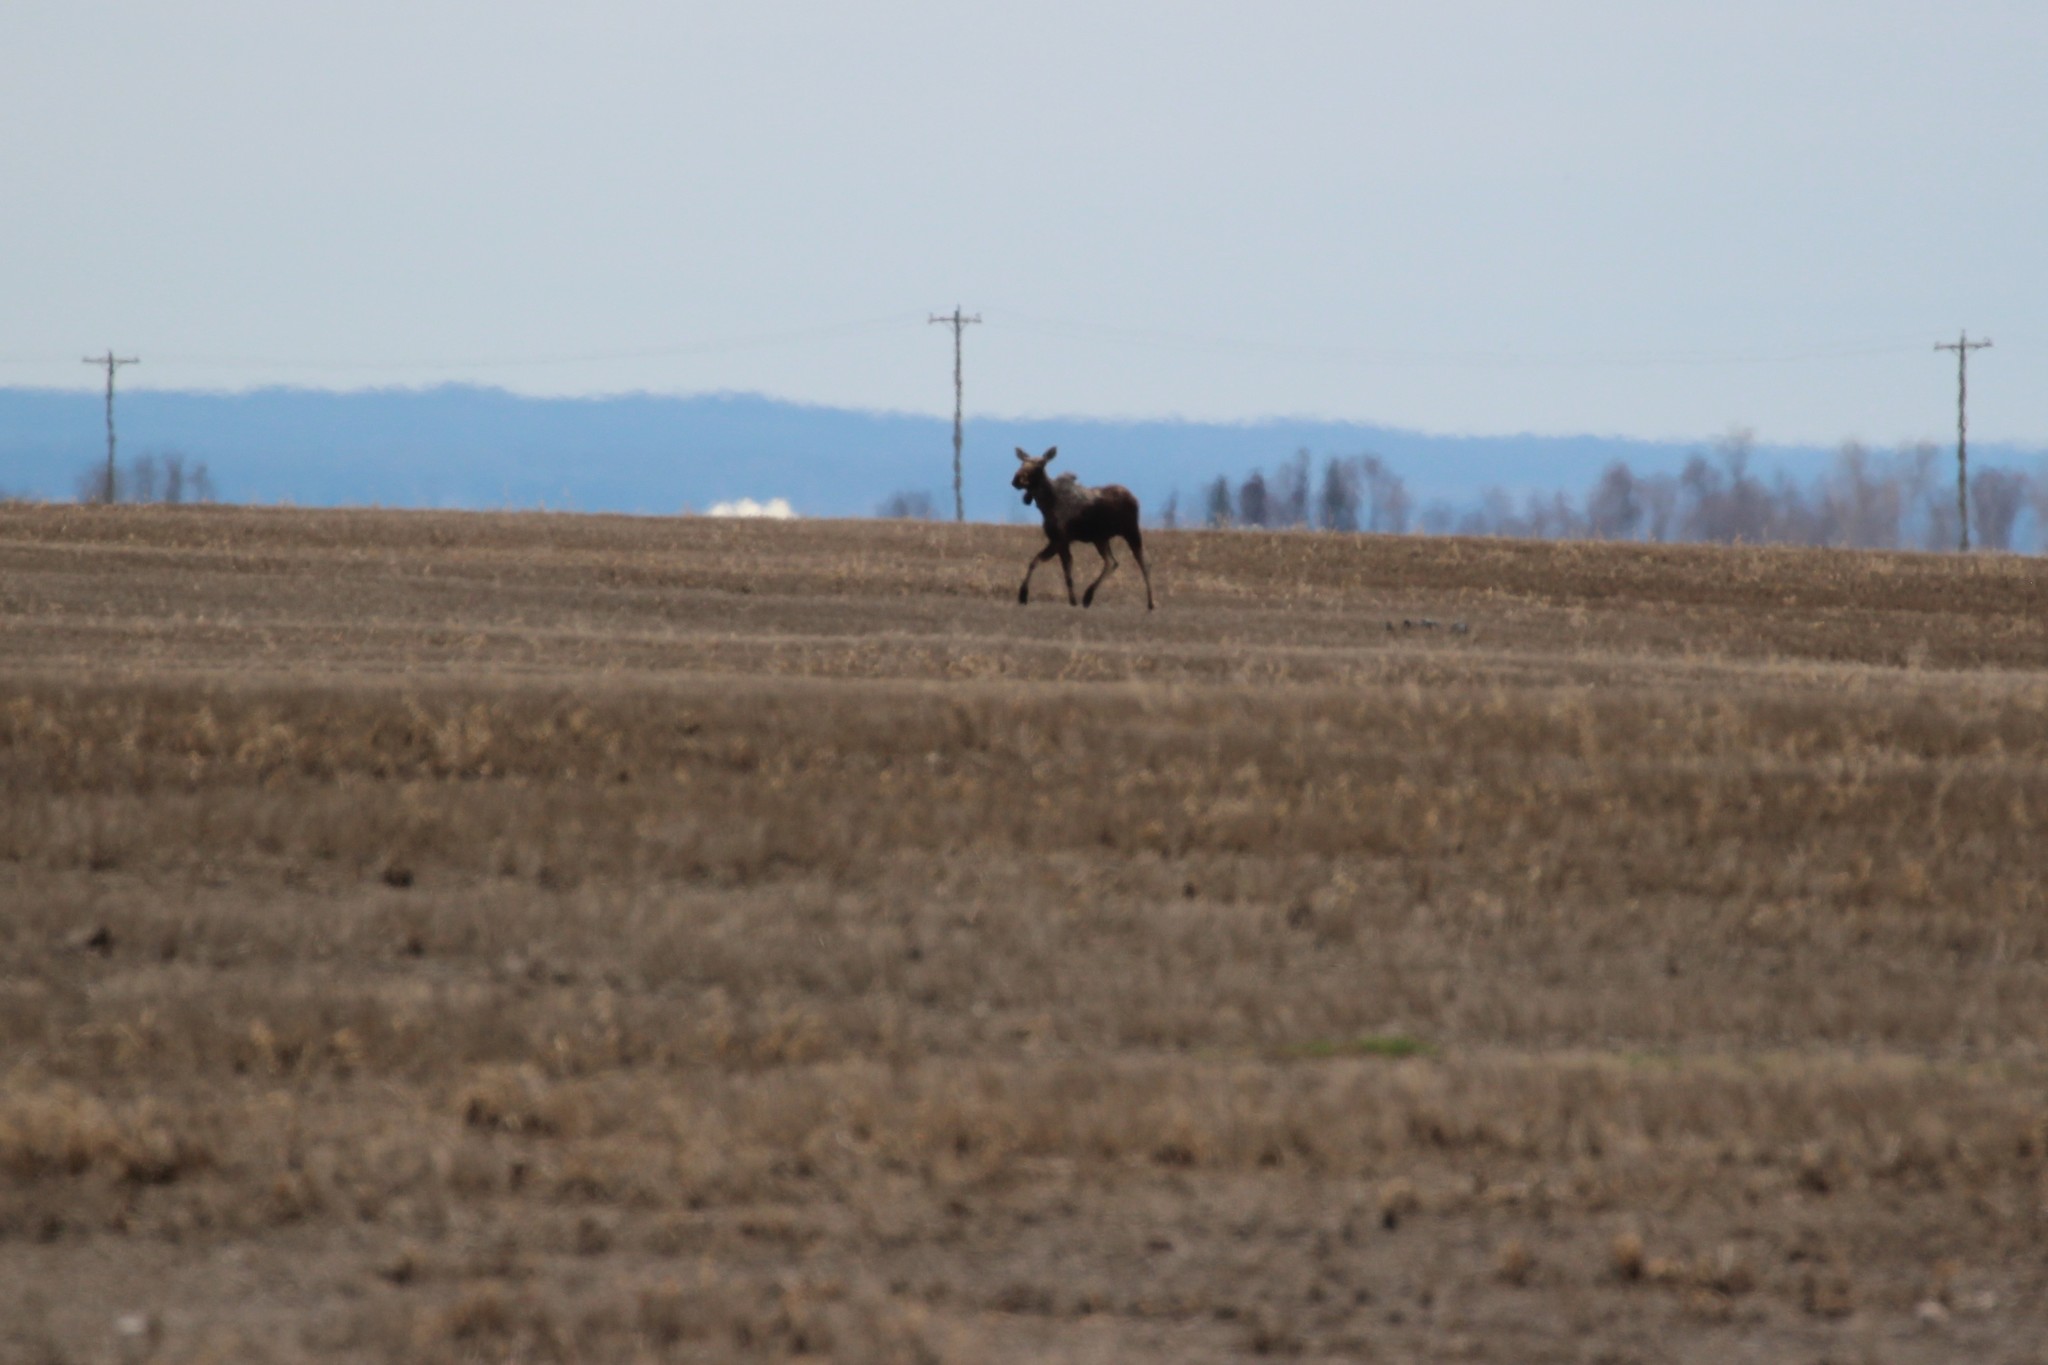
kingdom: Animalia
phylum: Chordata
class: Mammalia
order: Artiodactyla
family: Cervidae
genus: Alces
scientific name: Alces alces
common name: Moose
